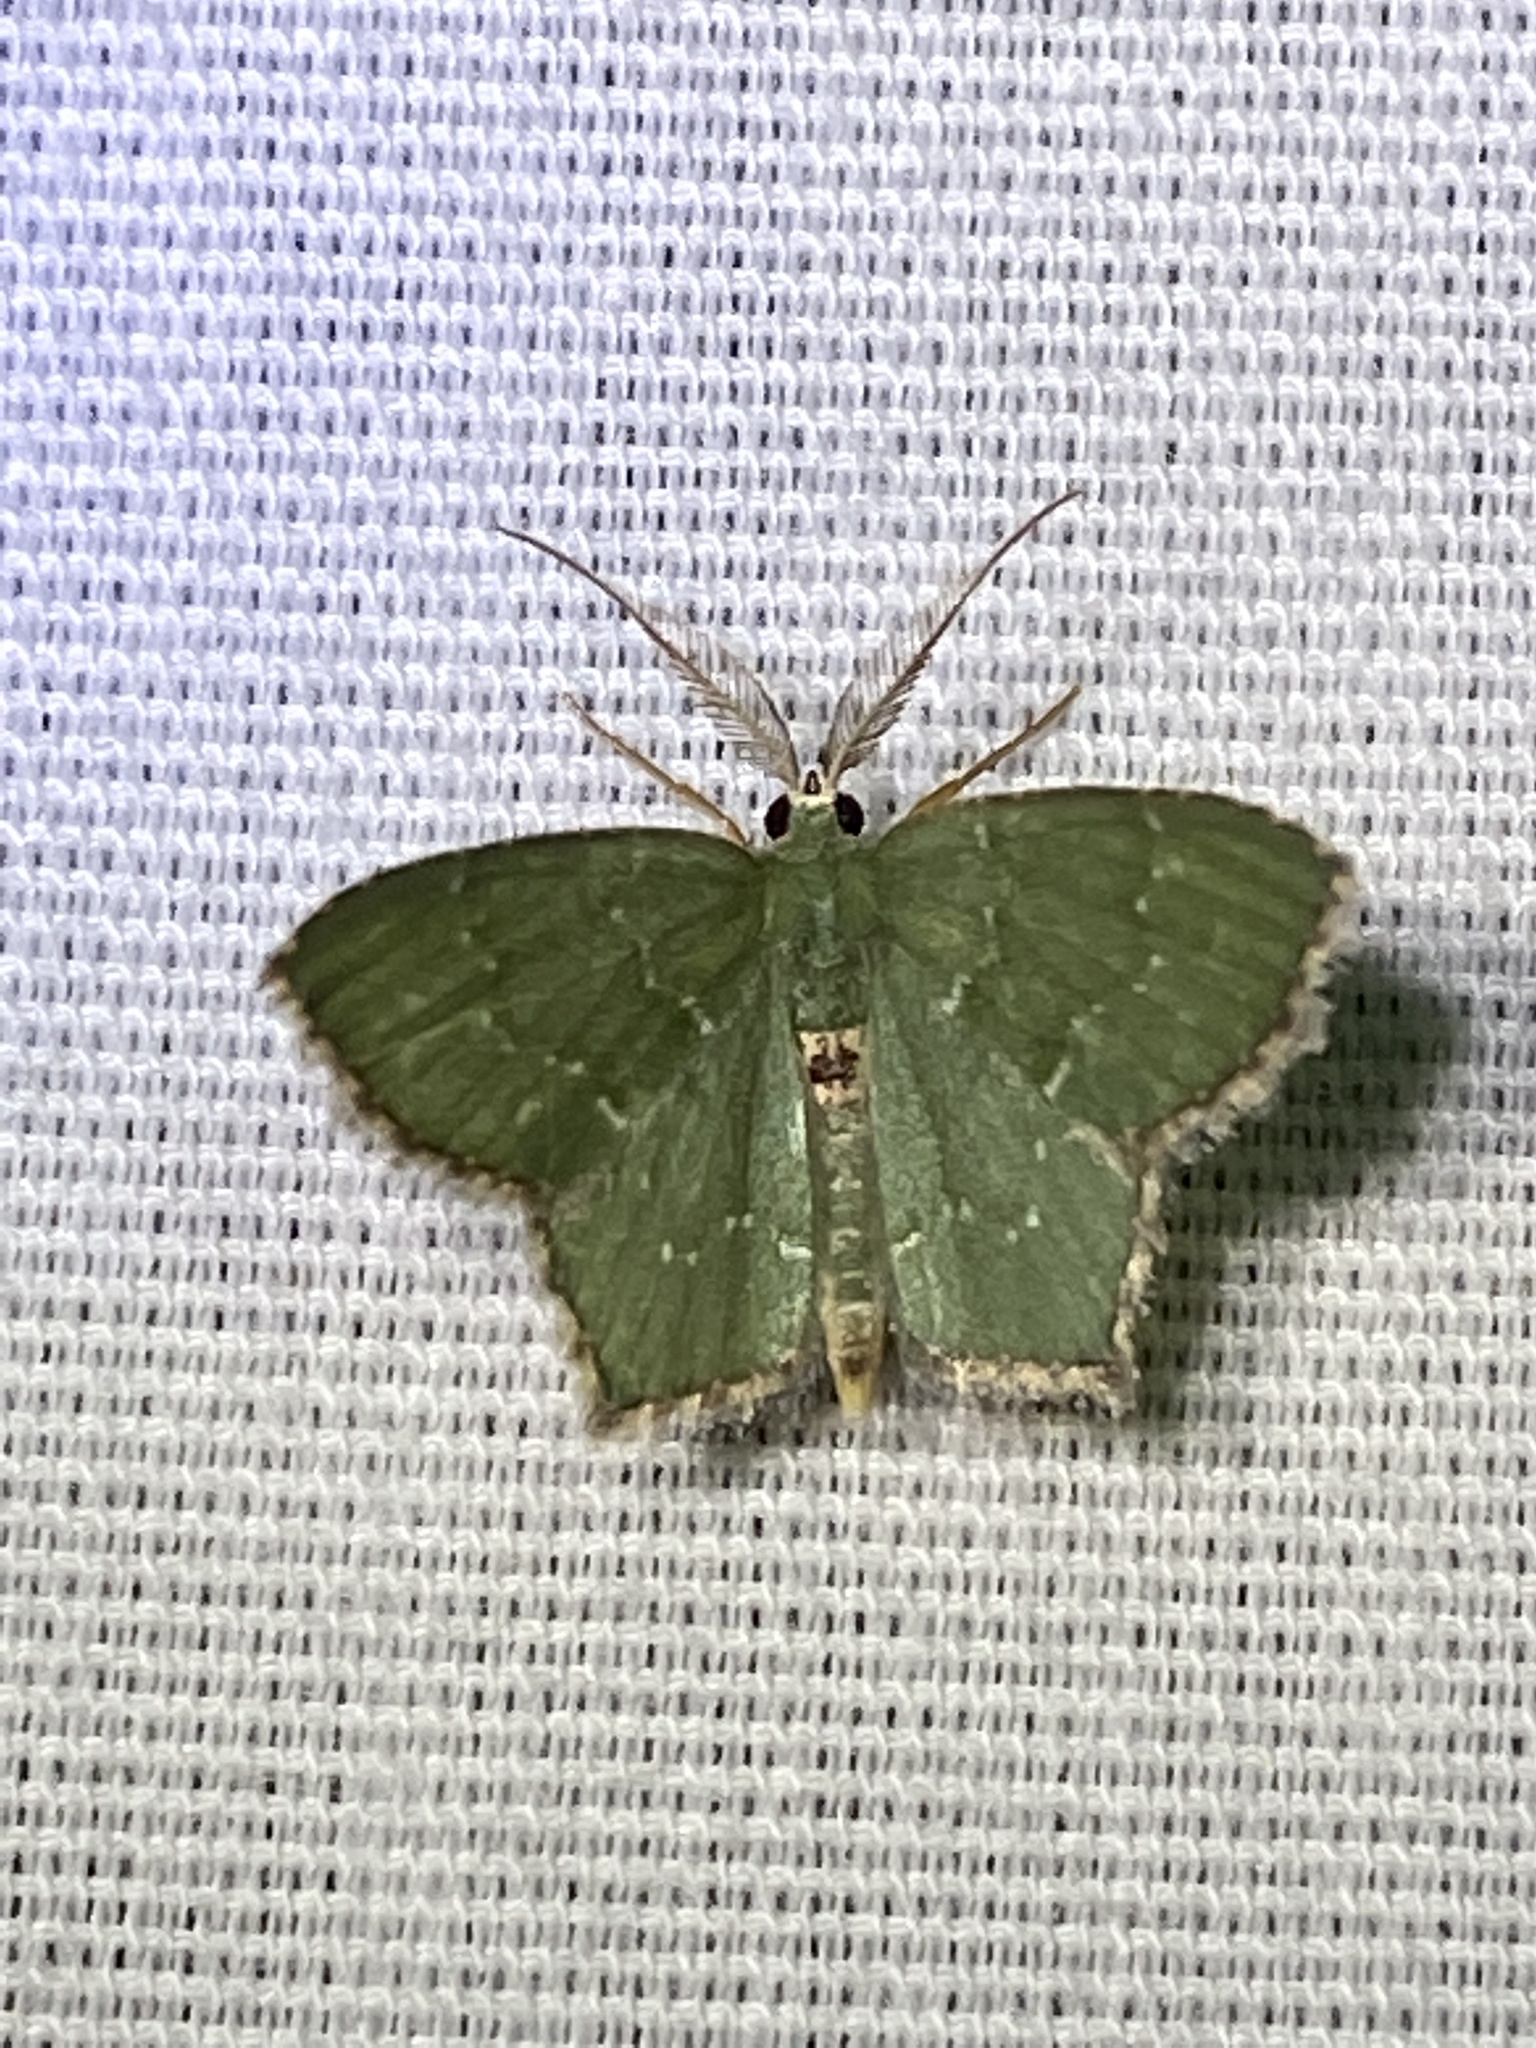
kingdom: Animalia
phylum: Arthropoda
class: Insecta
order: Lepidoptera
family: Geometridae
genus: Chloropteryx
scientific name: Chloropteryx tepperaria
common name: Angle winged emerald moth
